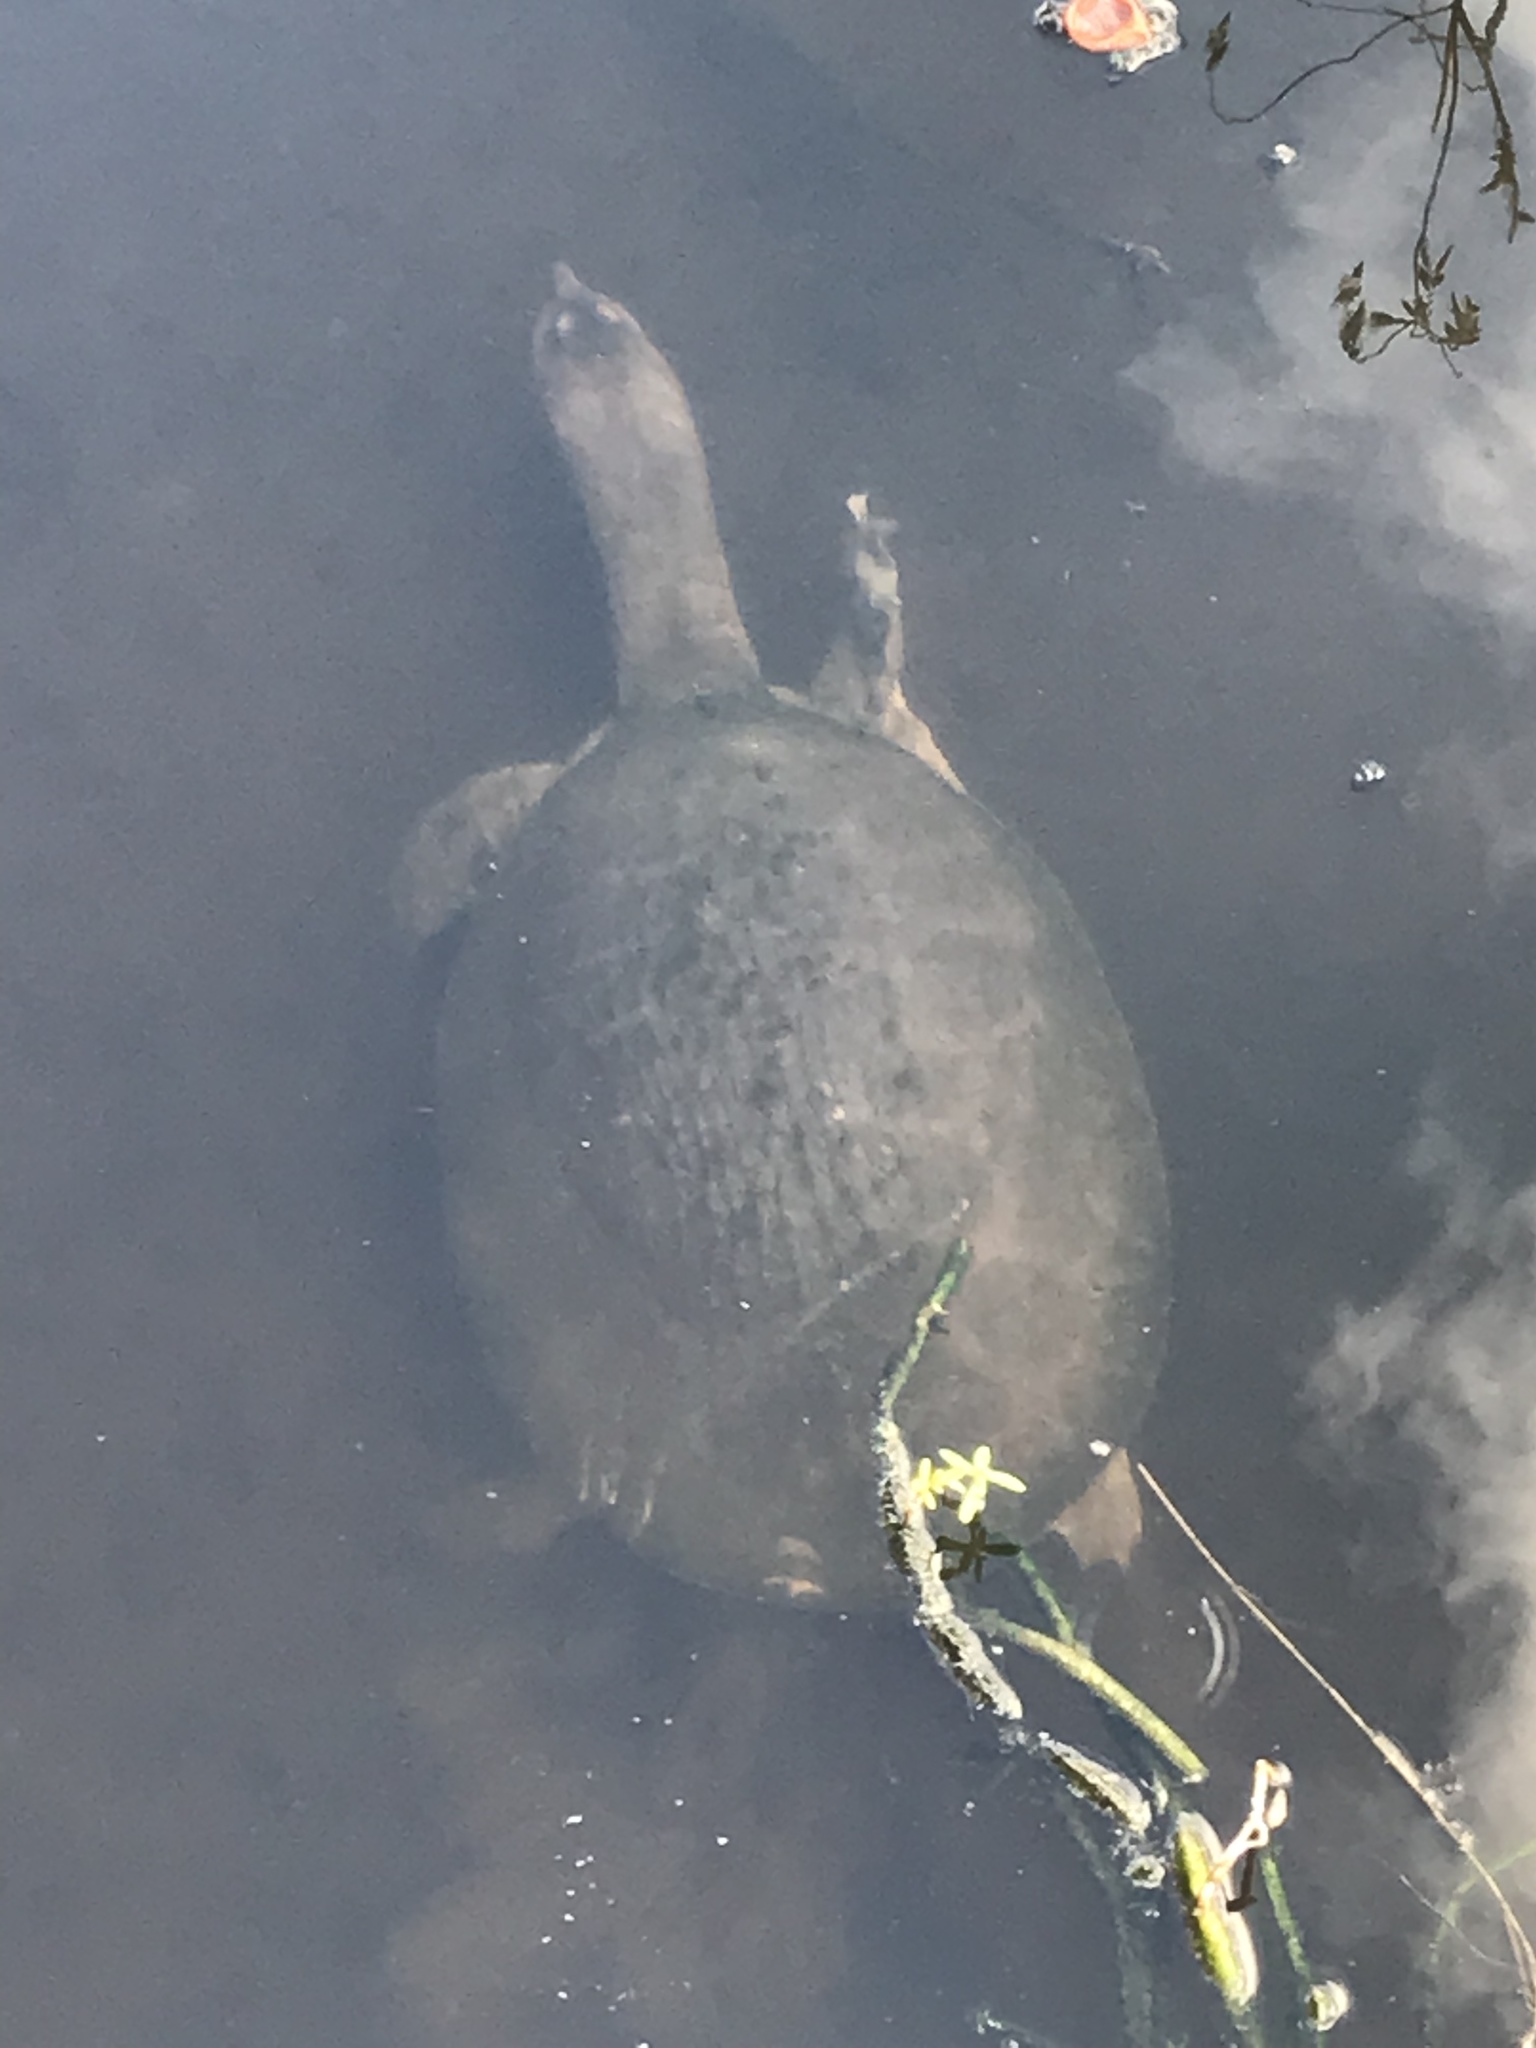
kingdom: Animalia
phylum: Chordata
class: Testudines
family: Trionychidae
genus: Apalone
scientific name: Apalone ferox
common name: Florida softshell turtle
